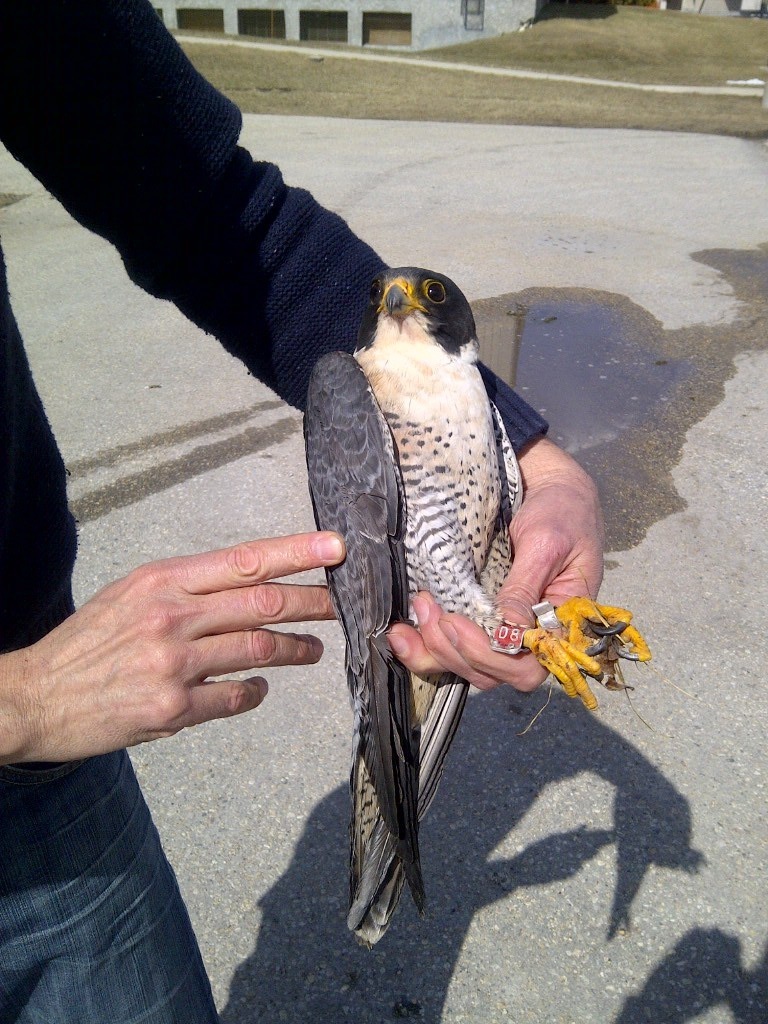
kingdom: Animalia
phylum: Chordata
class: Aves
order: Falconiformes
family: Falconidae
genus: Falco
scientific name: Falco peregrinus
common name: Peregrine falcon
